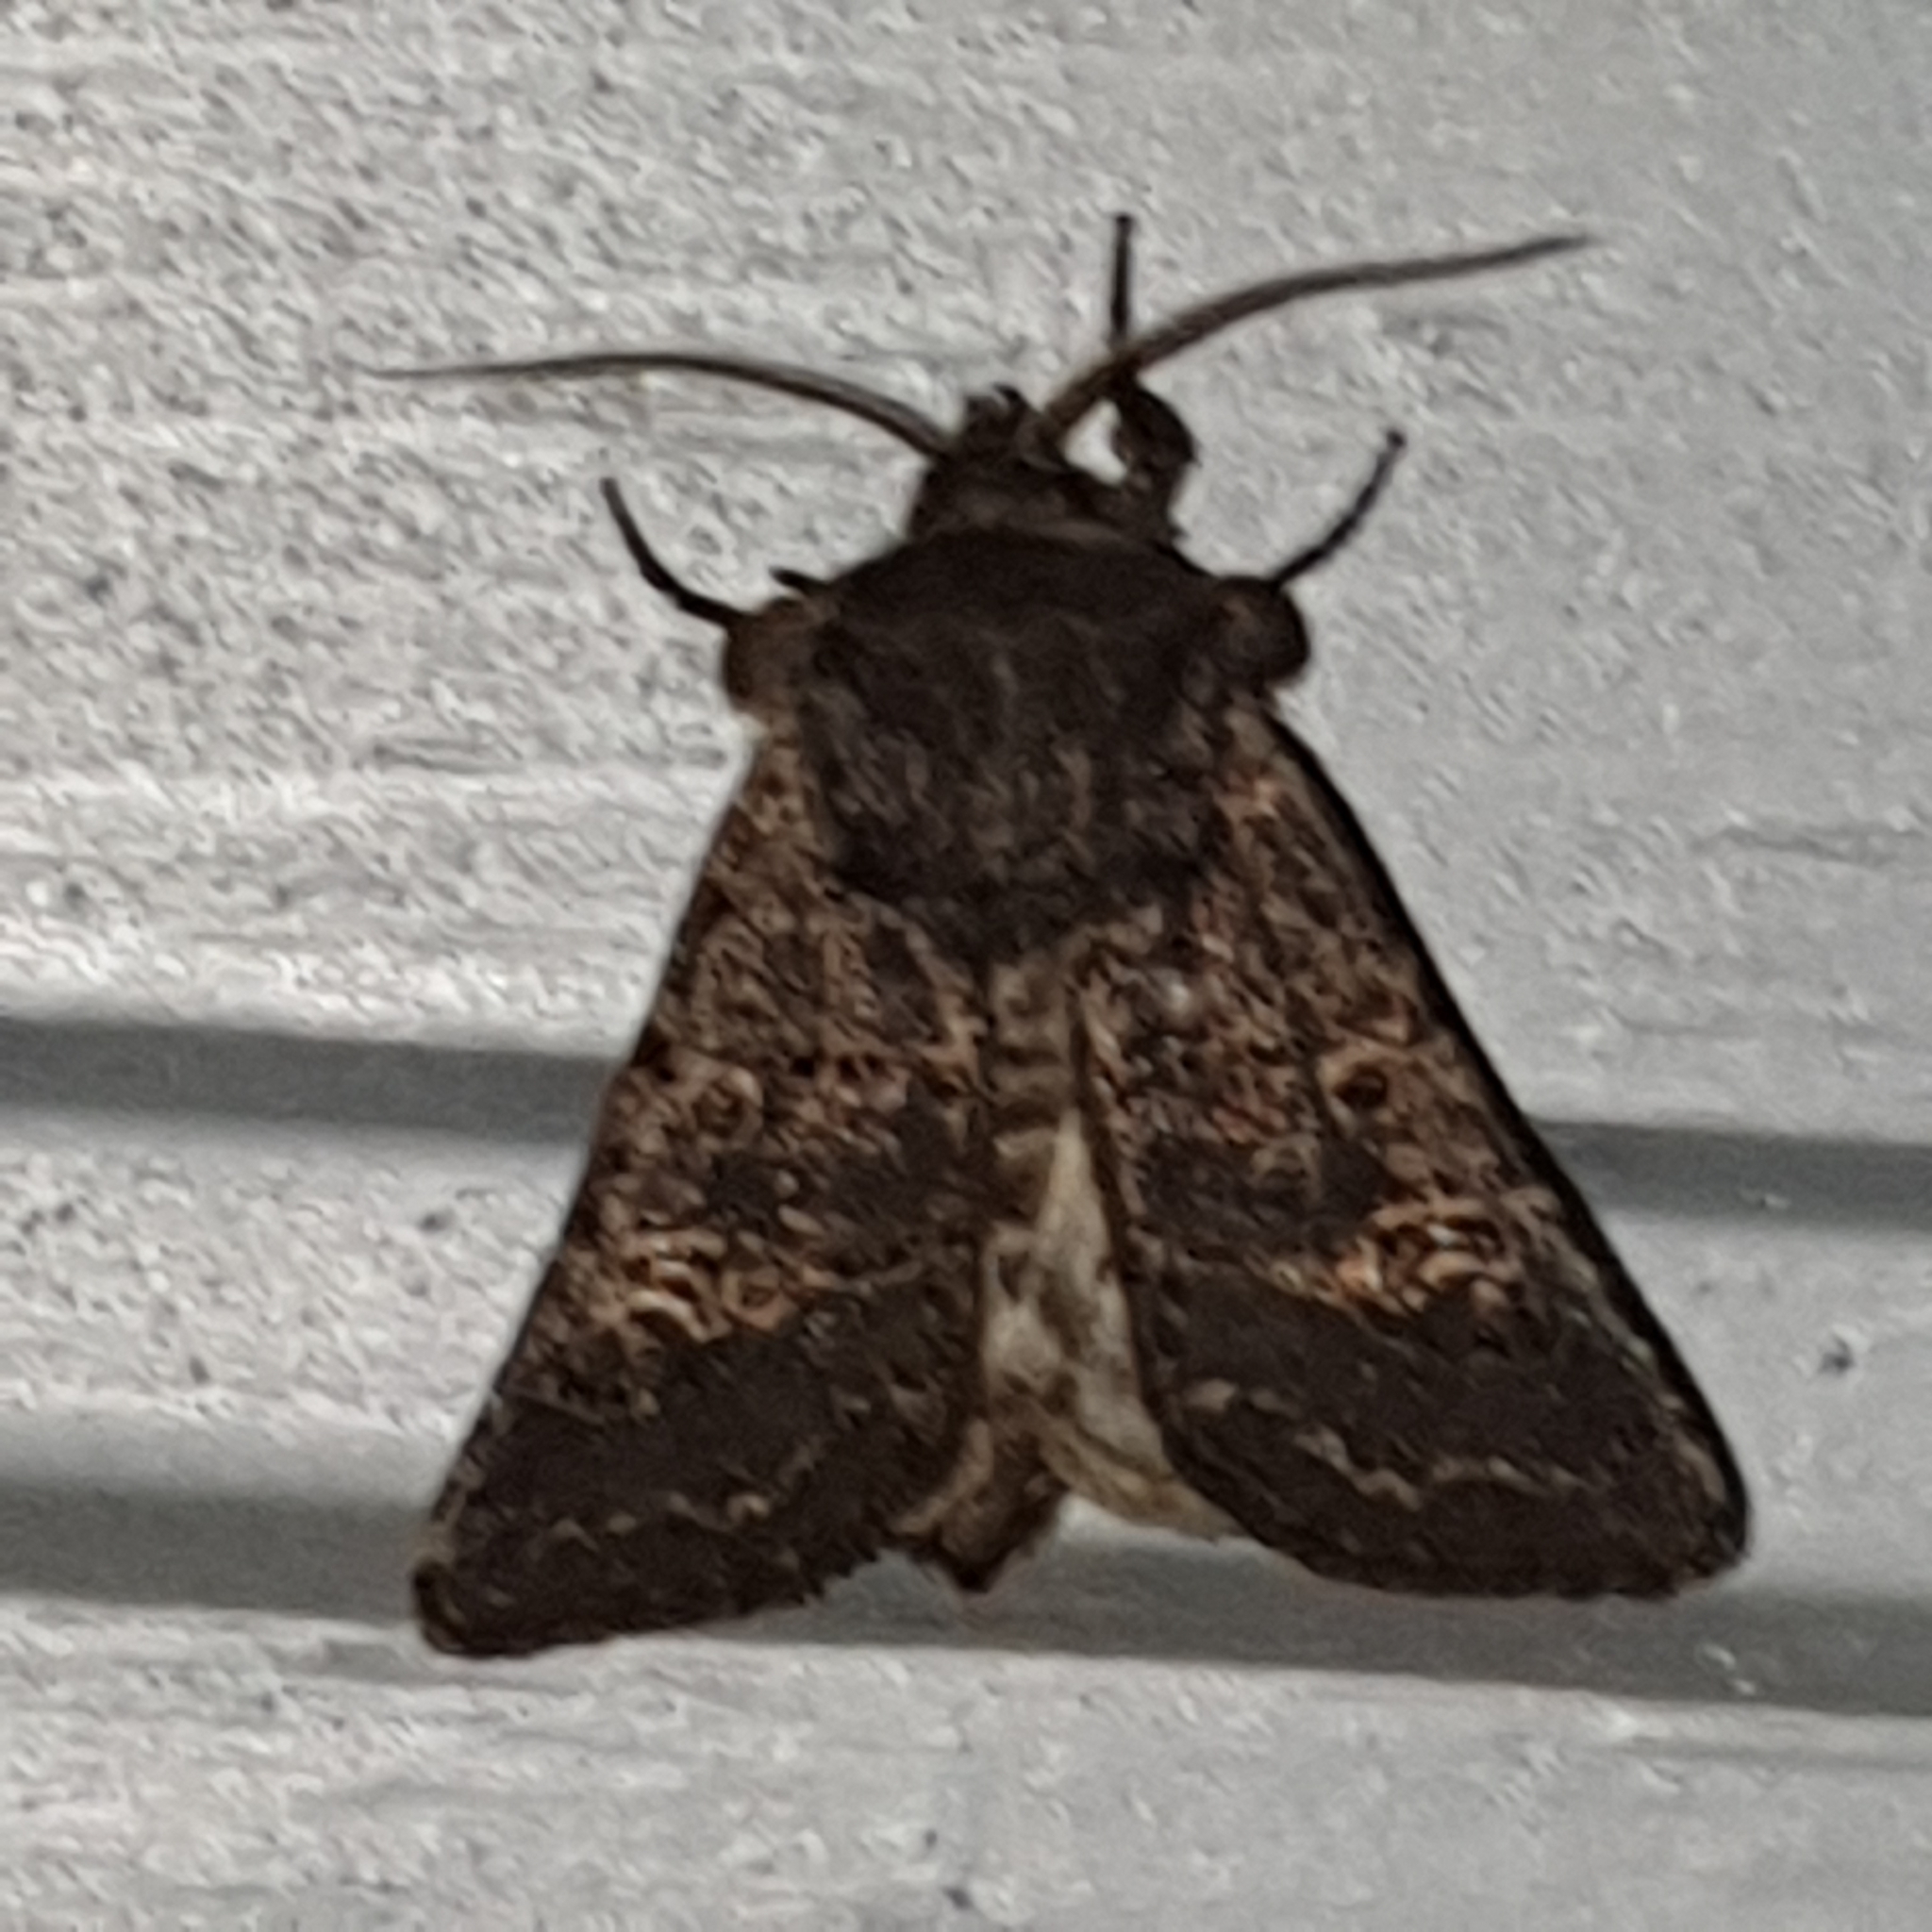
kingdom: Animalia
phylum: Arthropoda
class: Insecta
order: Lepidoptera
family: Noctuidae
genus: Tholera
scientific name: Tholera cespitis
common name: Hedge rustic
